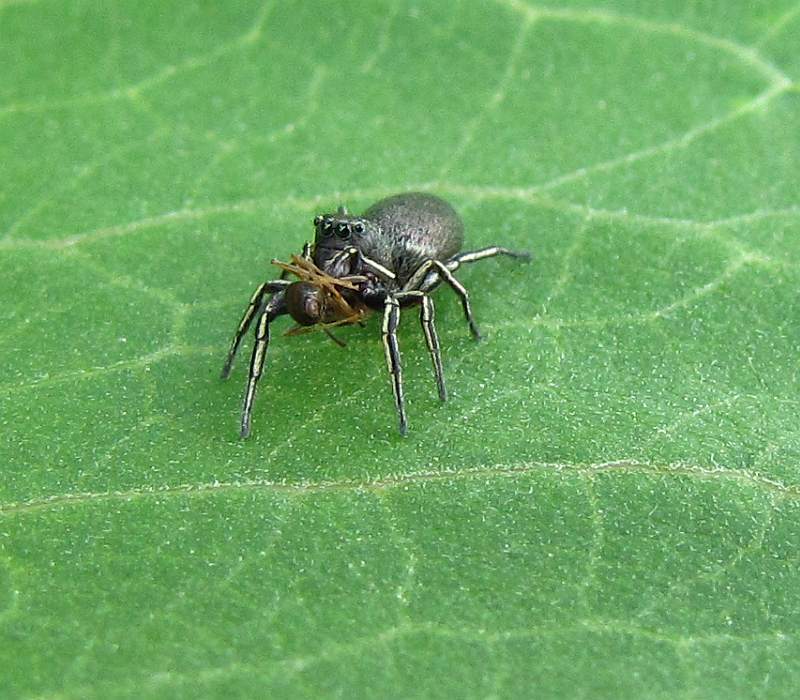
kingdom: Animalia
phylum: Arthropoda
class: Arachnida
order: Araneae
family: Salticidae
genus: Tutelina
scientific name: Tutelina similis
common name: Thick-spined jumping spider
